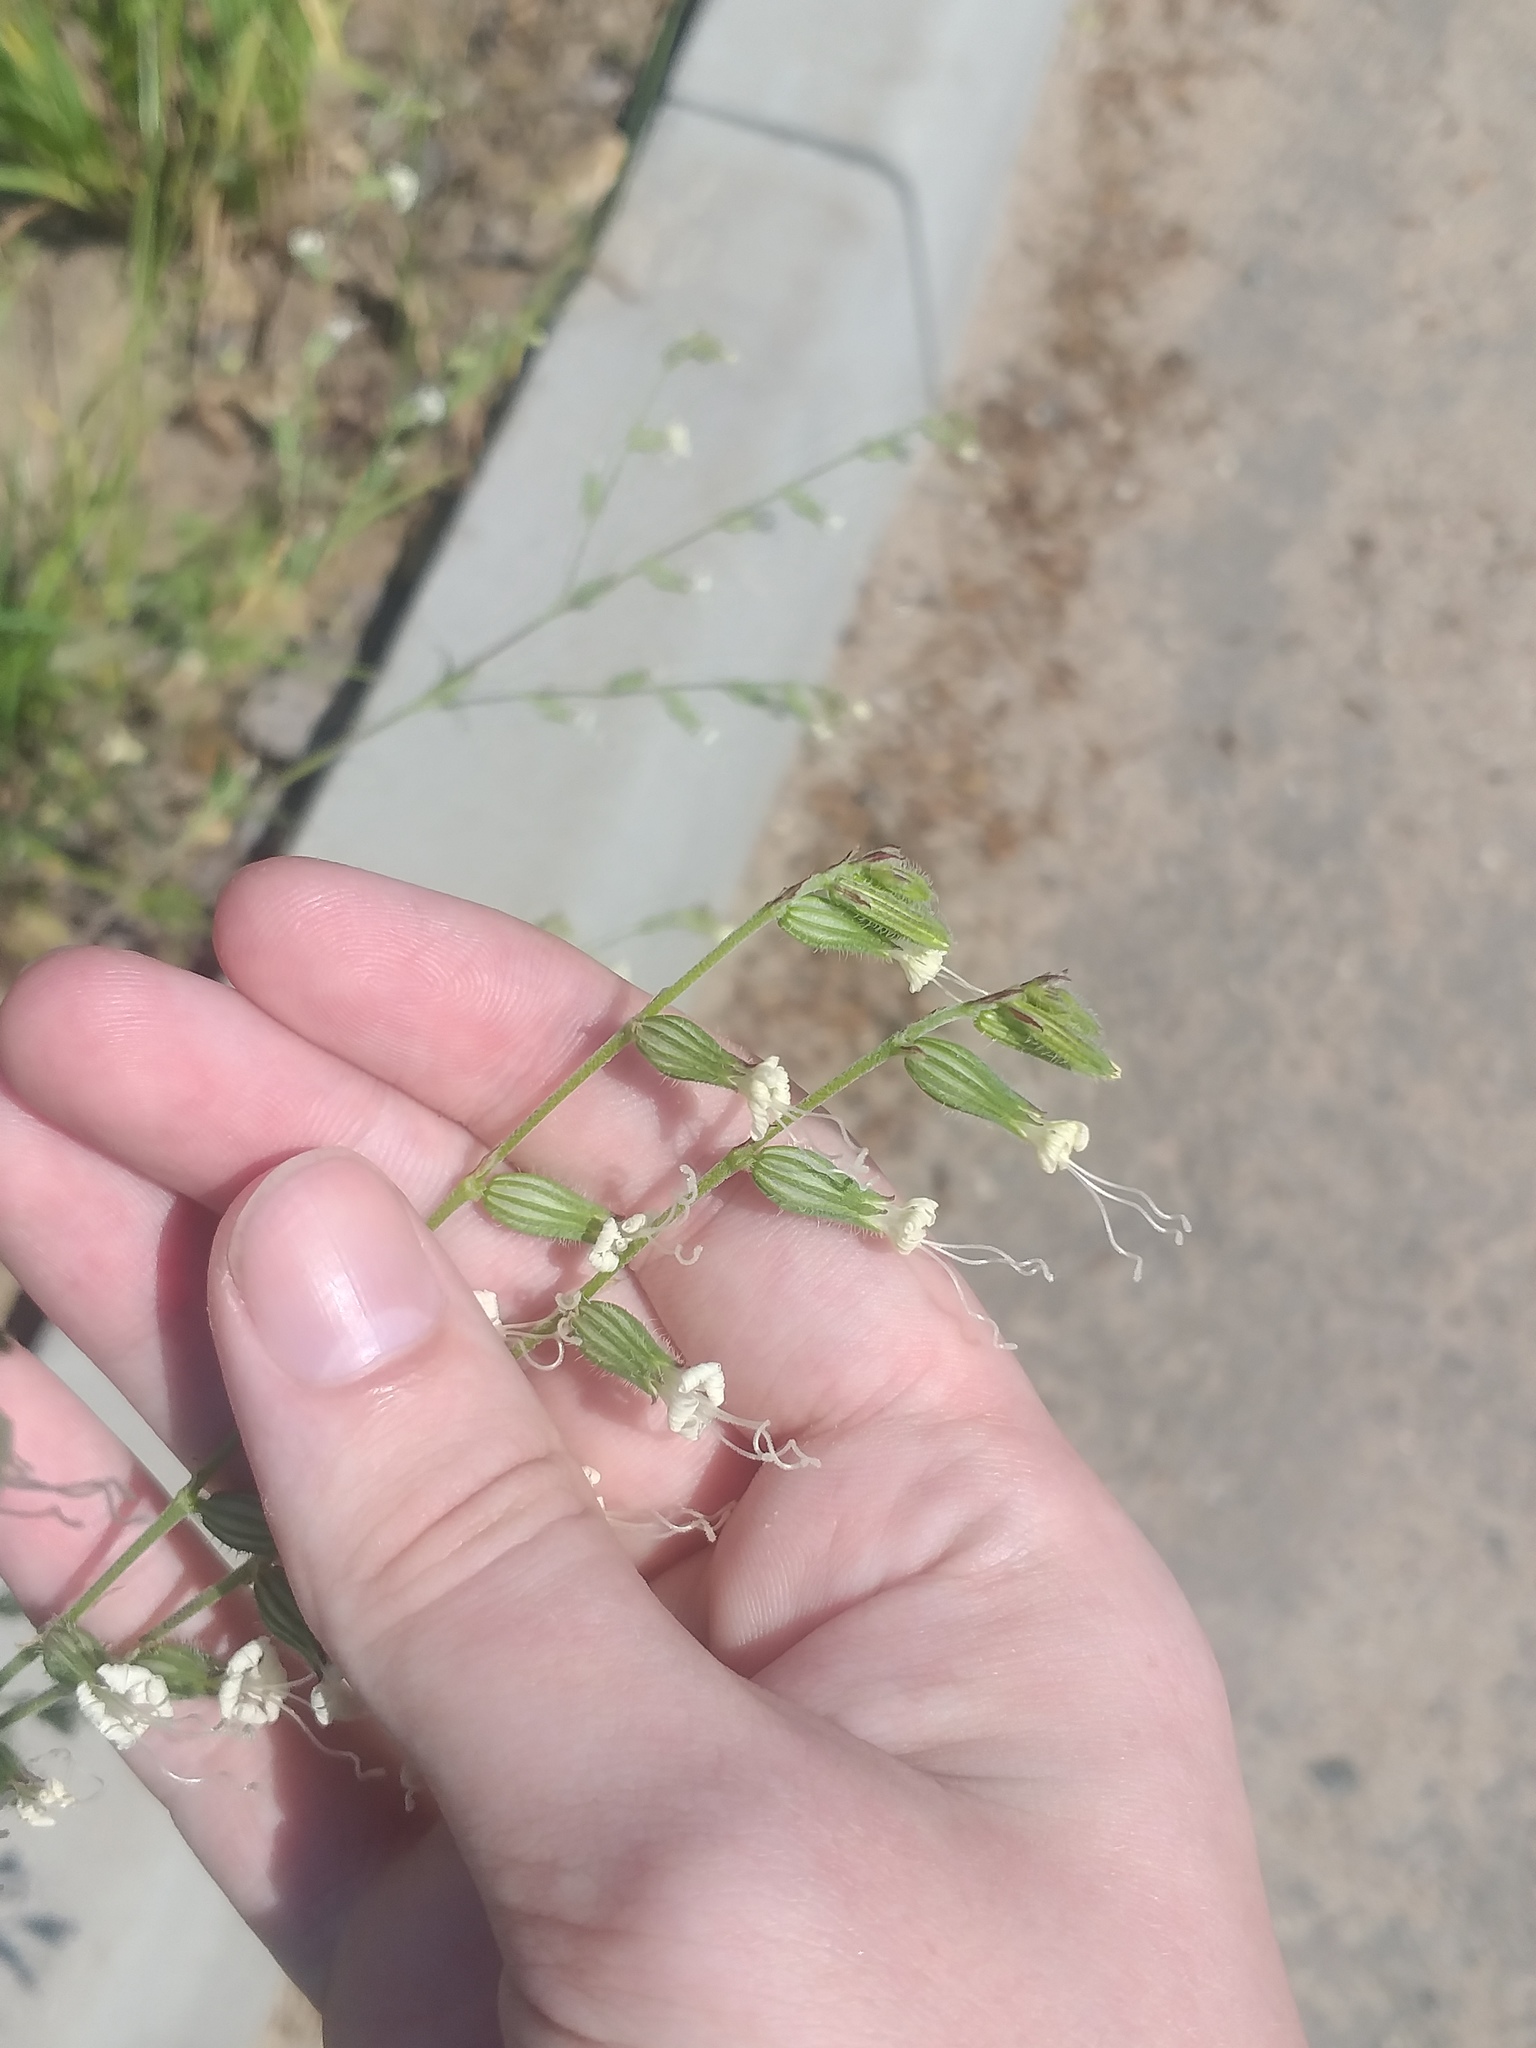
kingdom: Plantae
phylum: Tracheophyta
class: Magnoliopsida
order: Caryophyllales
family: Caryophyllaceae
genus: Silene
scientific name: Silene dichotoma
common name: Forked catchfly
